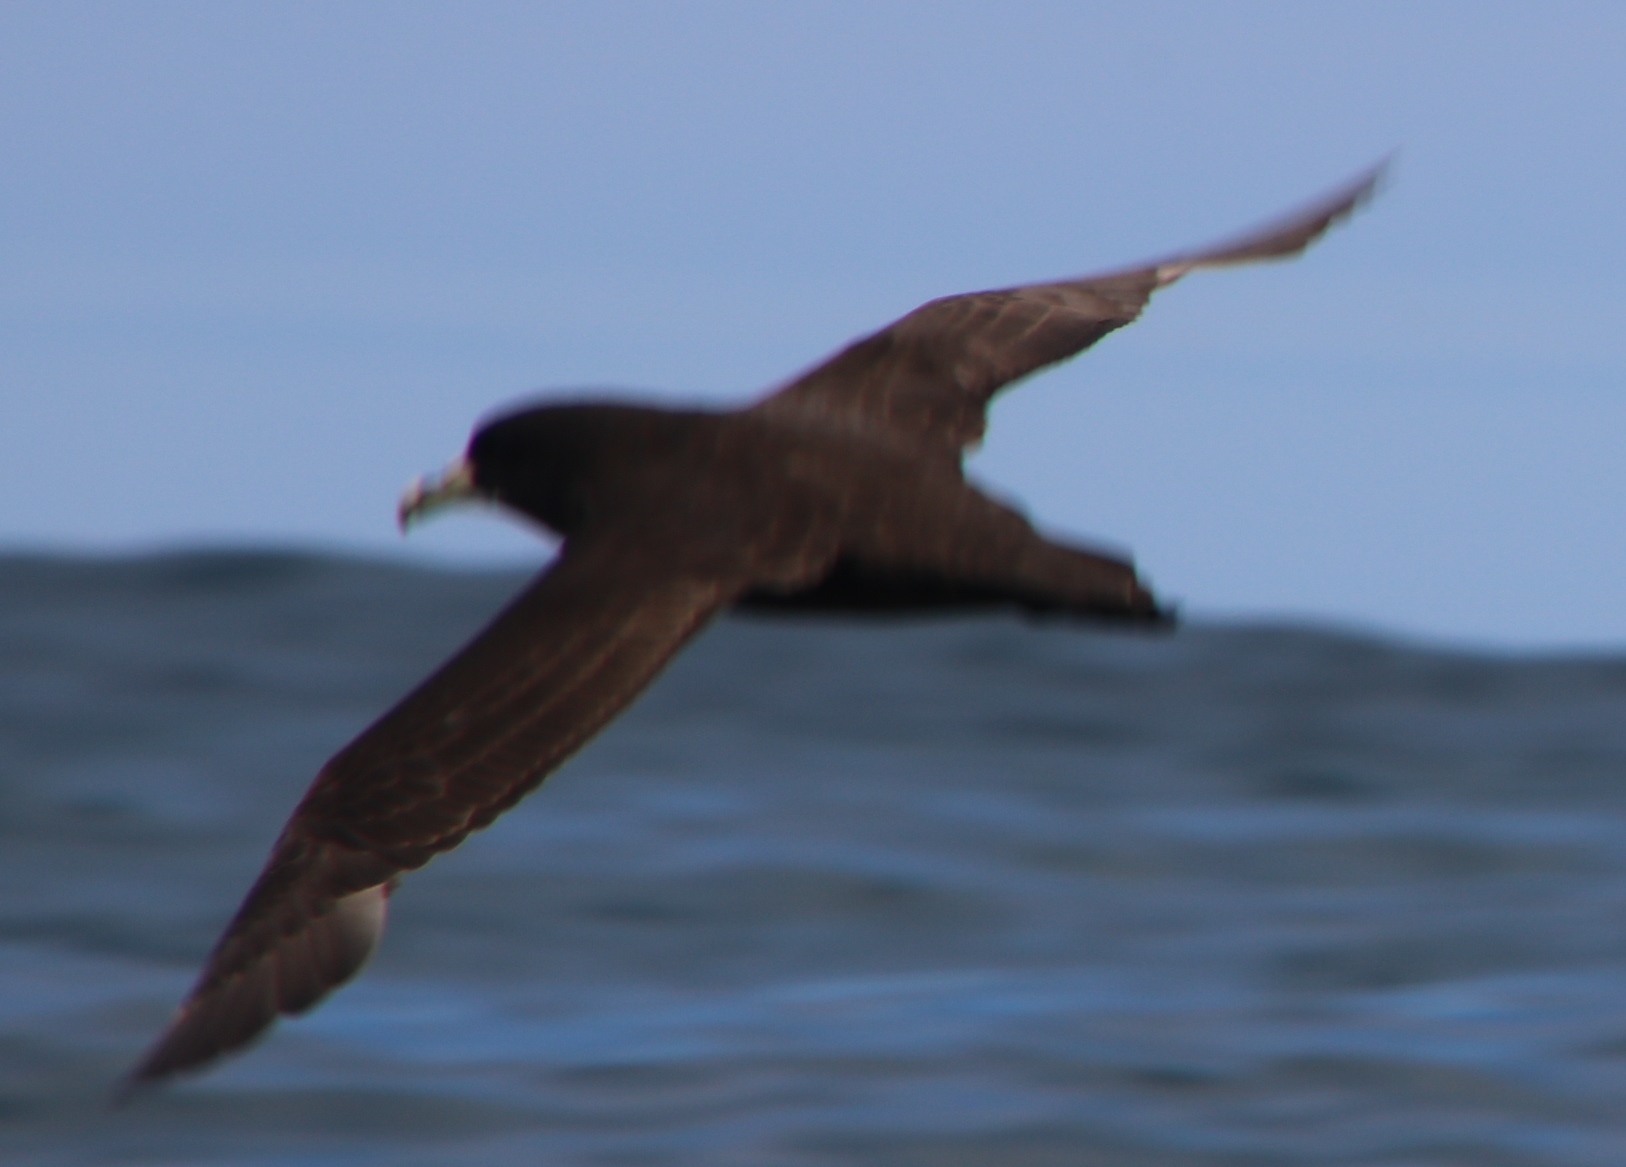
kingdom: Animalia
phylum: Chordata
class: Aves
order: Procellariiformes
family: Procellariidae
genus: Procellaria
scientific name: Procellaria aequinoctialis
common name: White-chinned petrel
